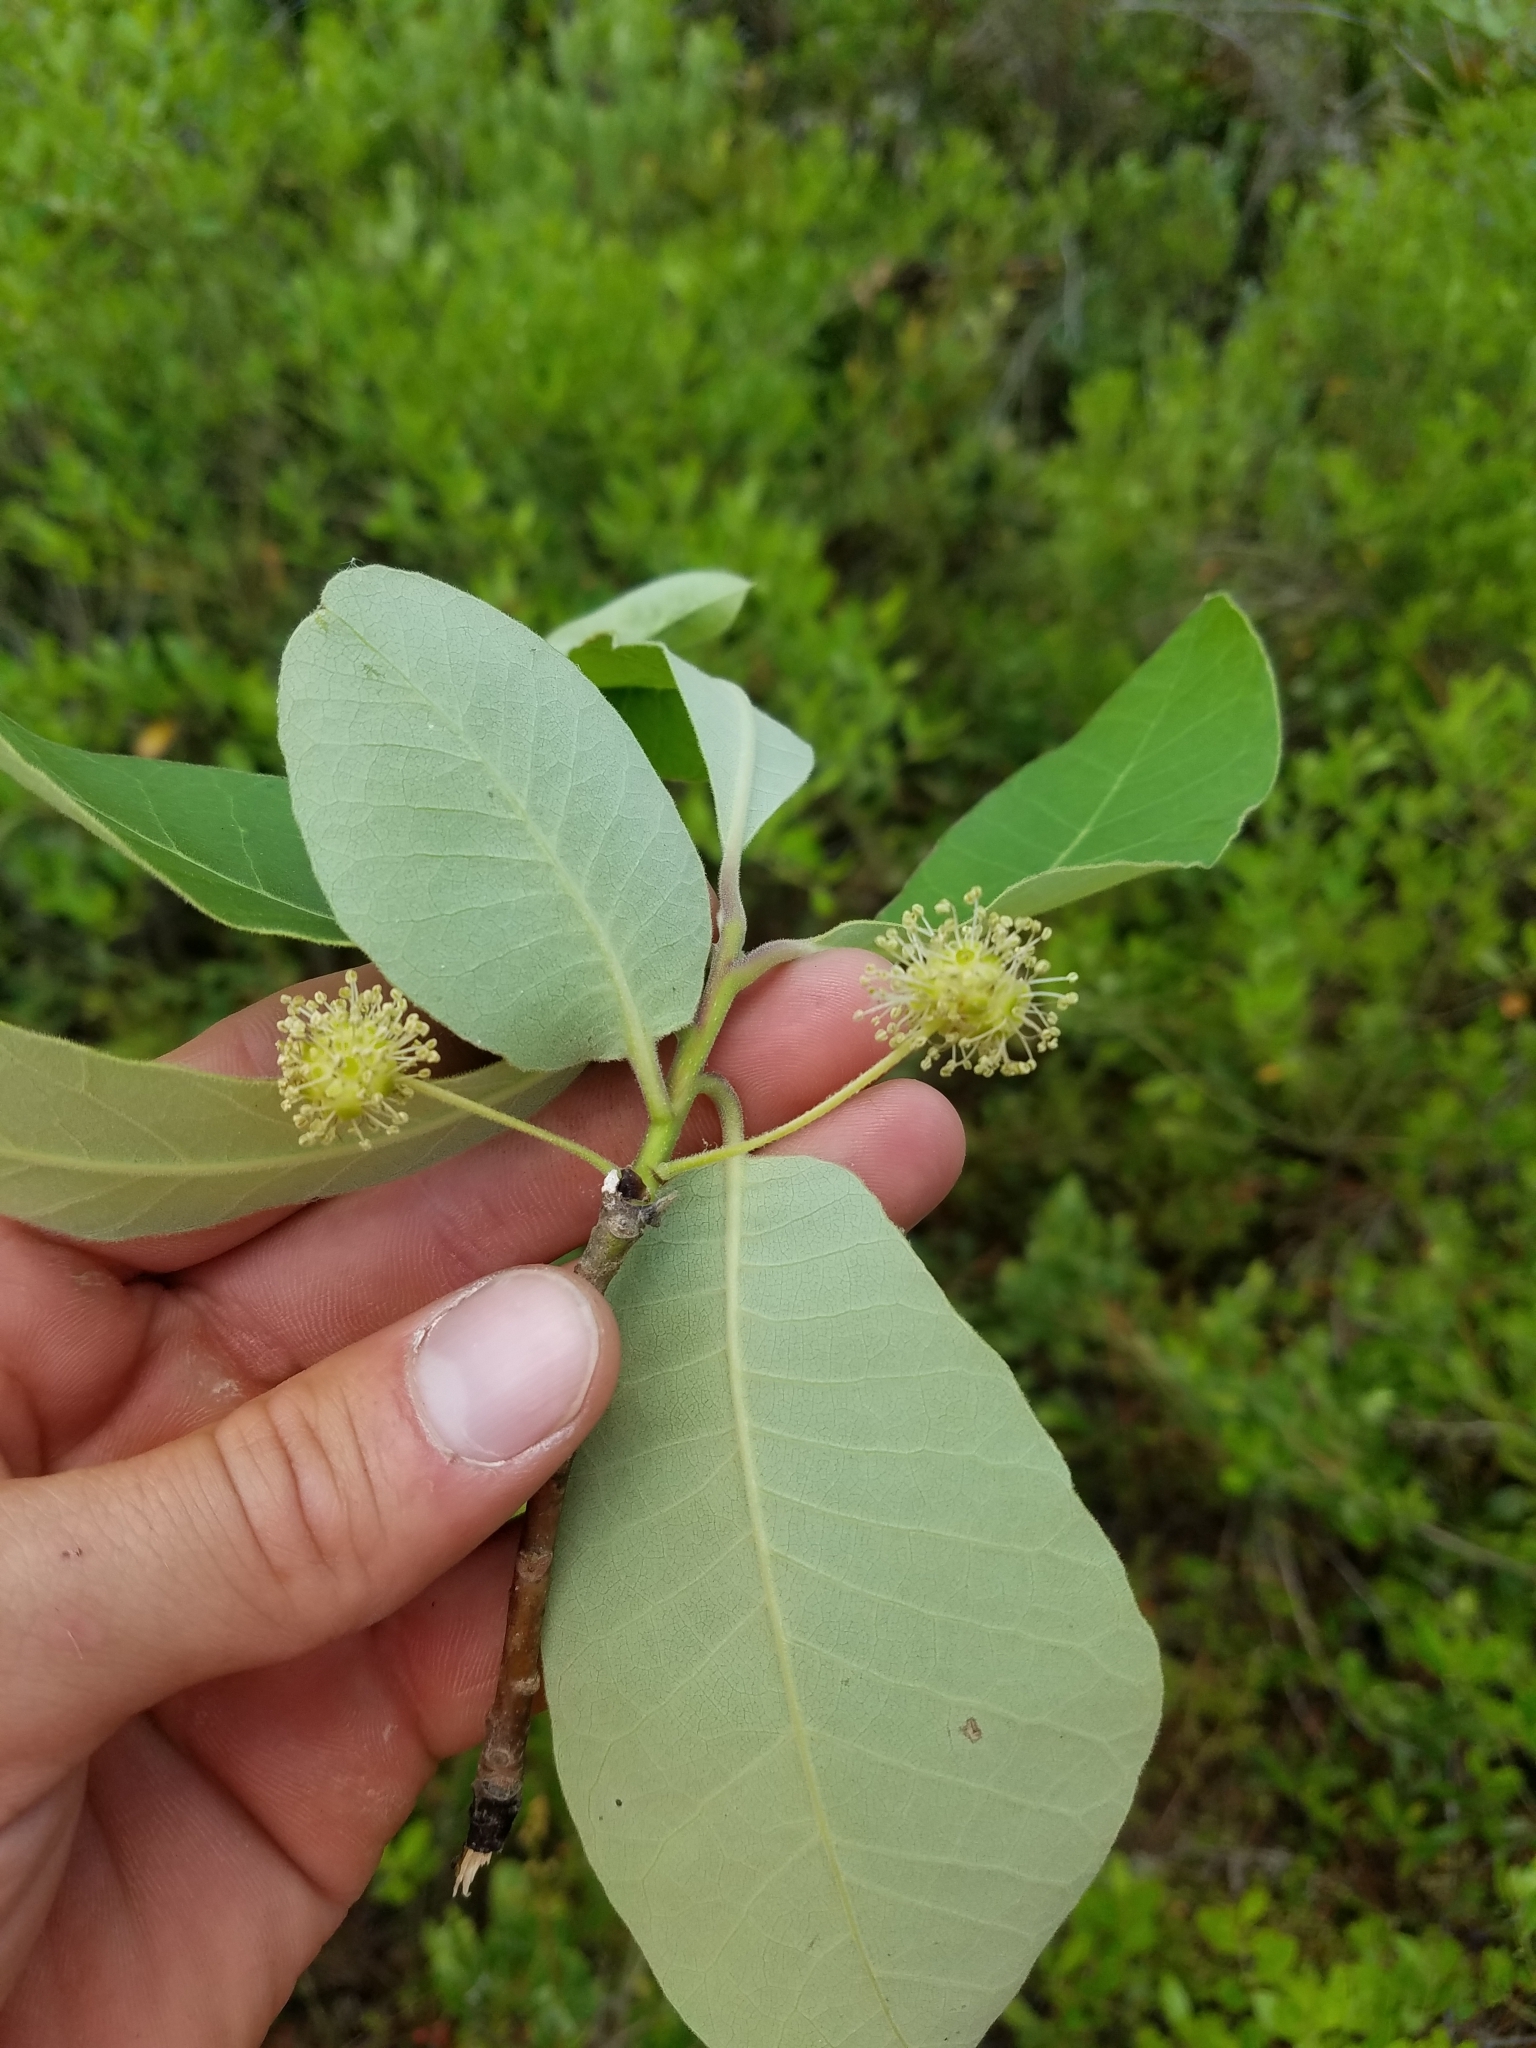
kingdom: Plantae
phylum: Tracheophyta
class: Magnoliopsida
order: Cornales
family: Nyssaceae
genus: Nyssa
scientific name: Nyssa ogeche
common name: Ogeechee tupelo
